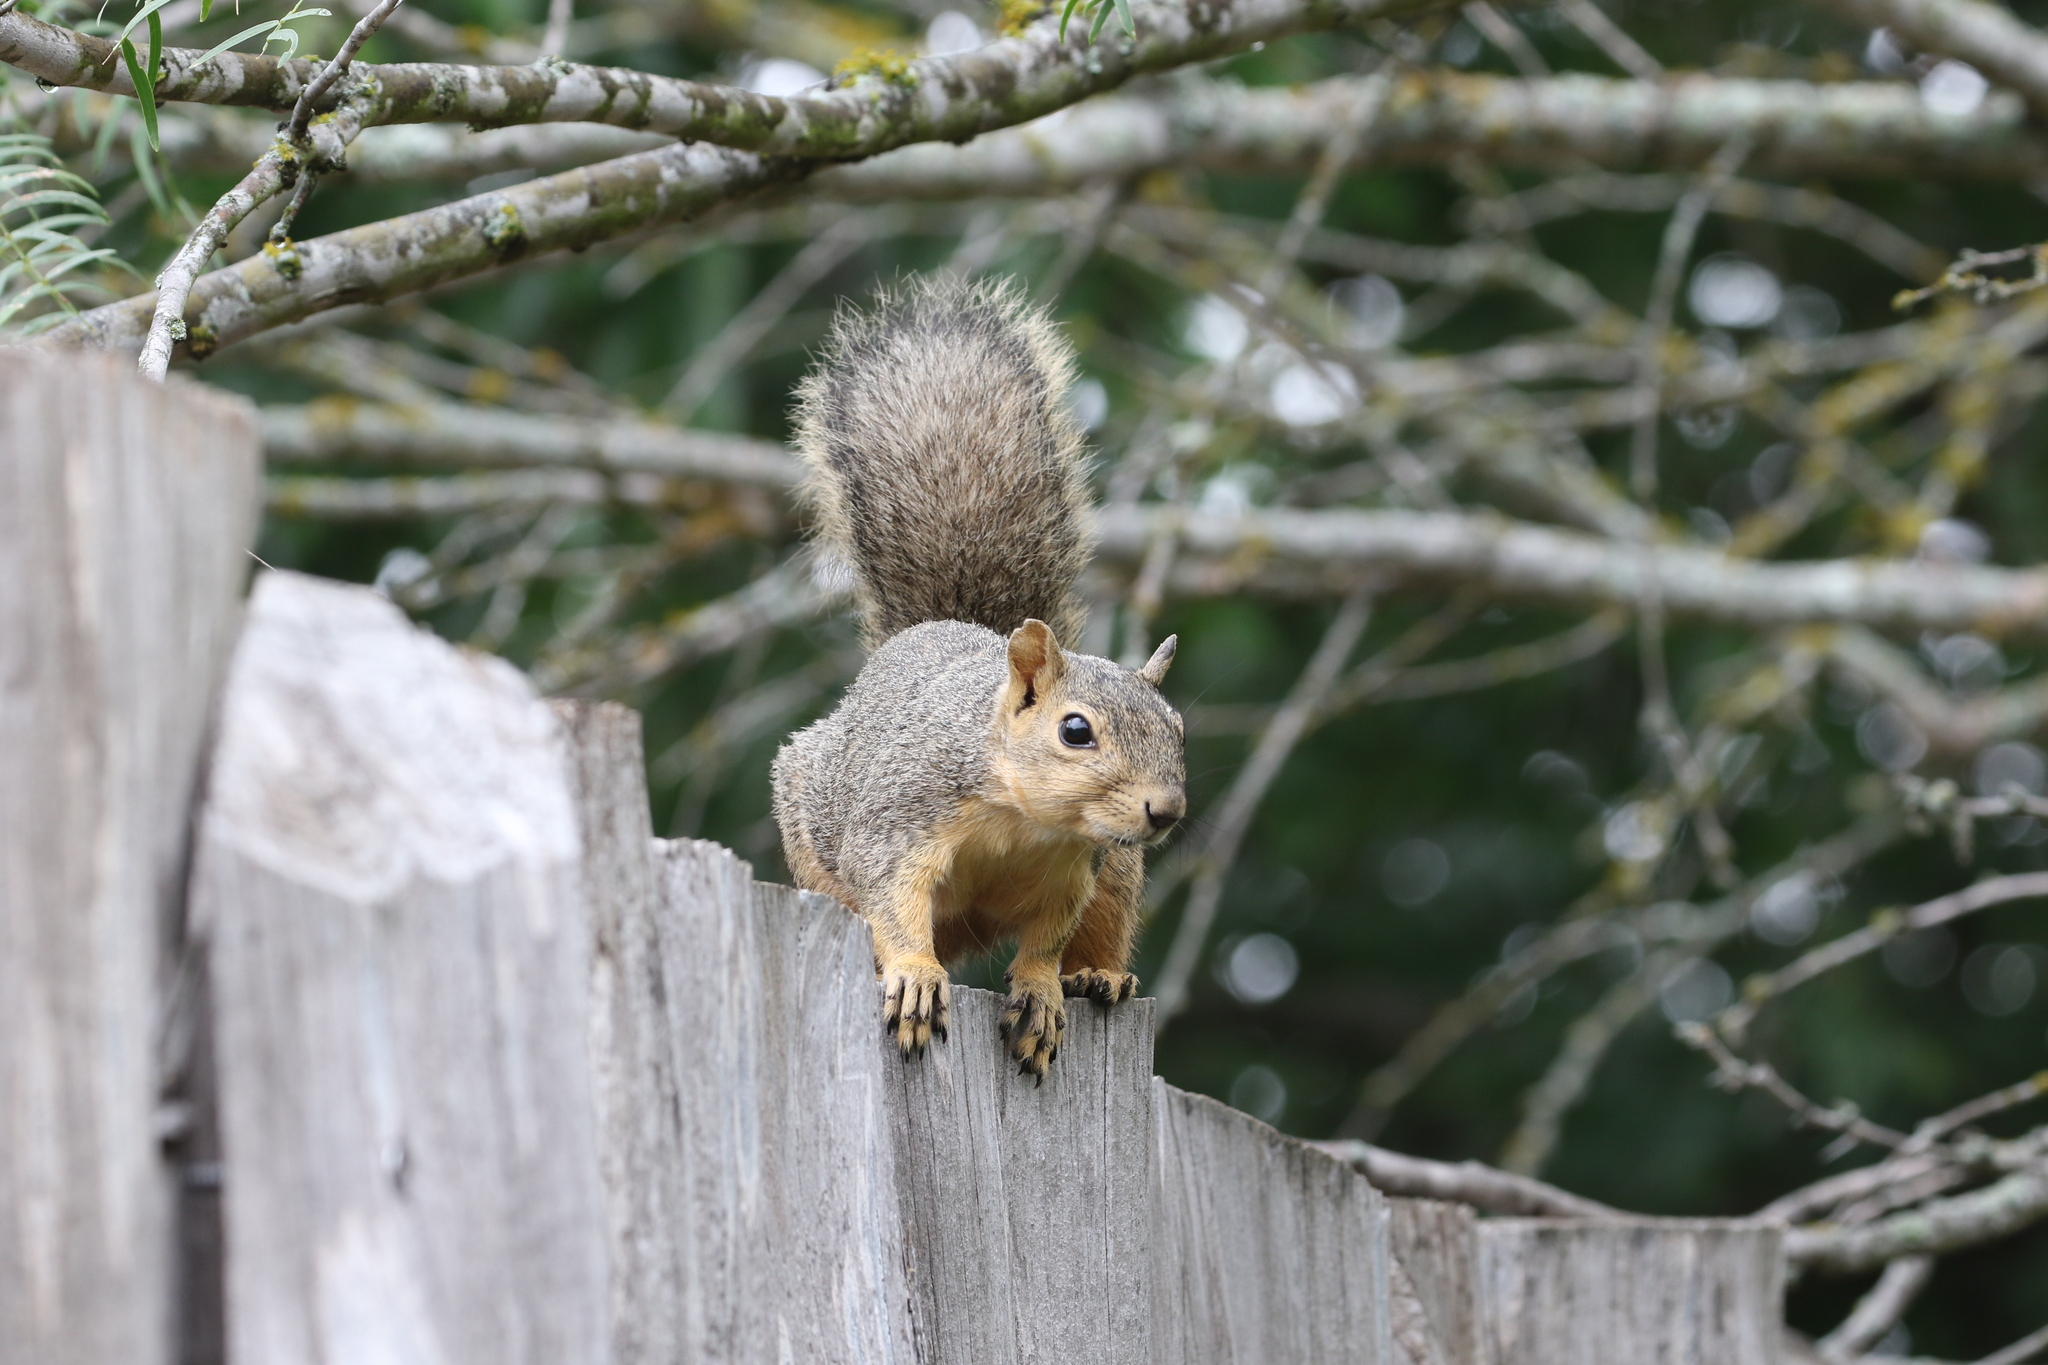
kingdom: Animalia
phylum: Chordata
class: Mammalia
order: Rodentia
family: Sciuridae
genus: Sciurus
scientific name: Sciurus niger
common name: Fox squirrel
